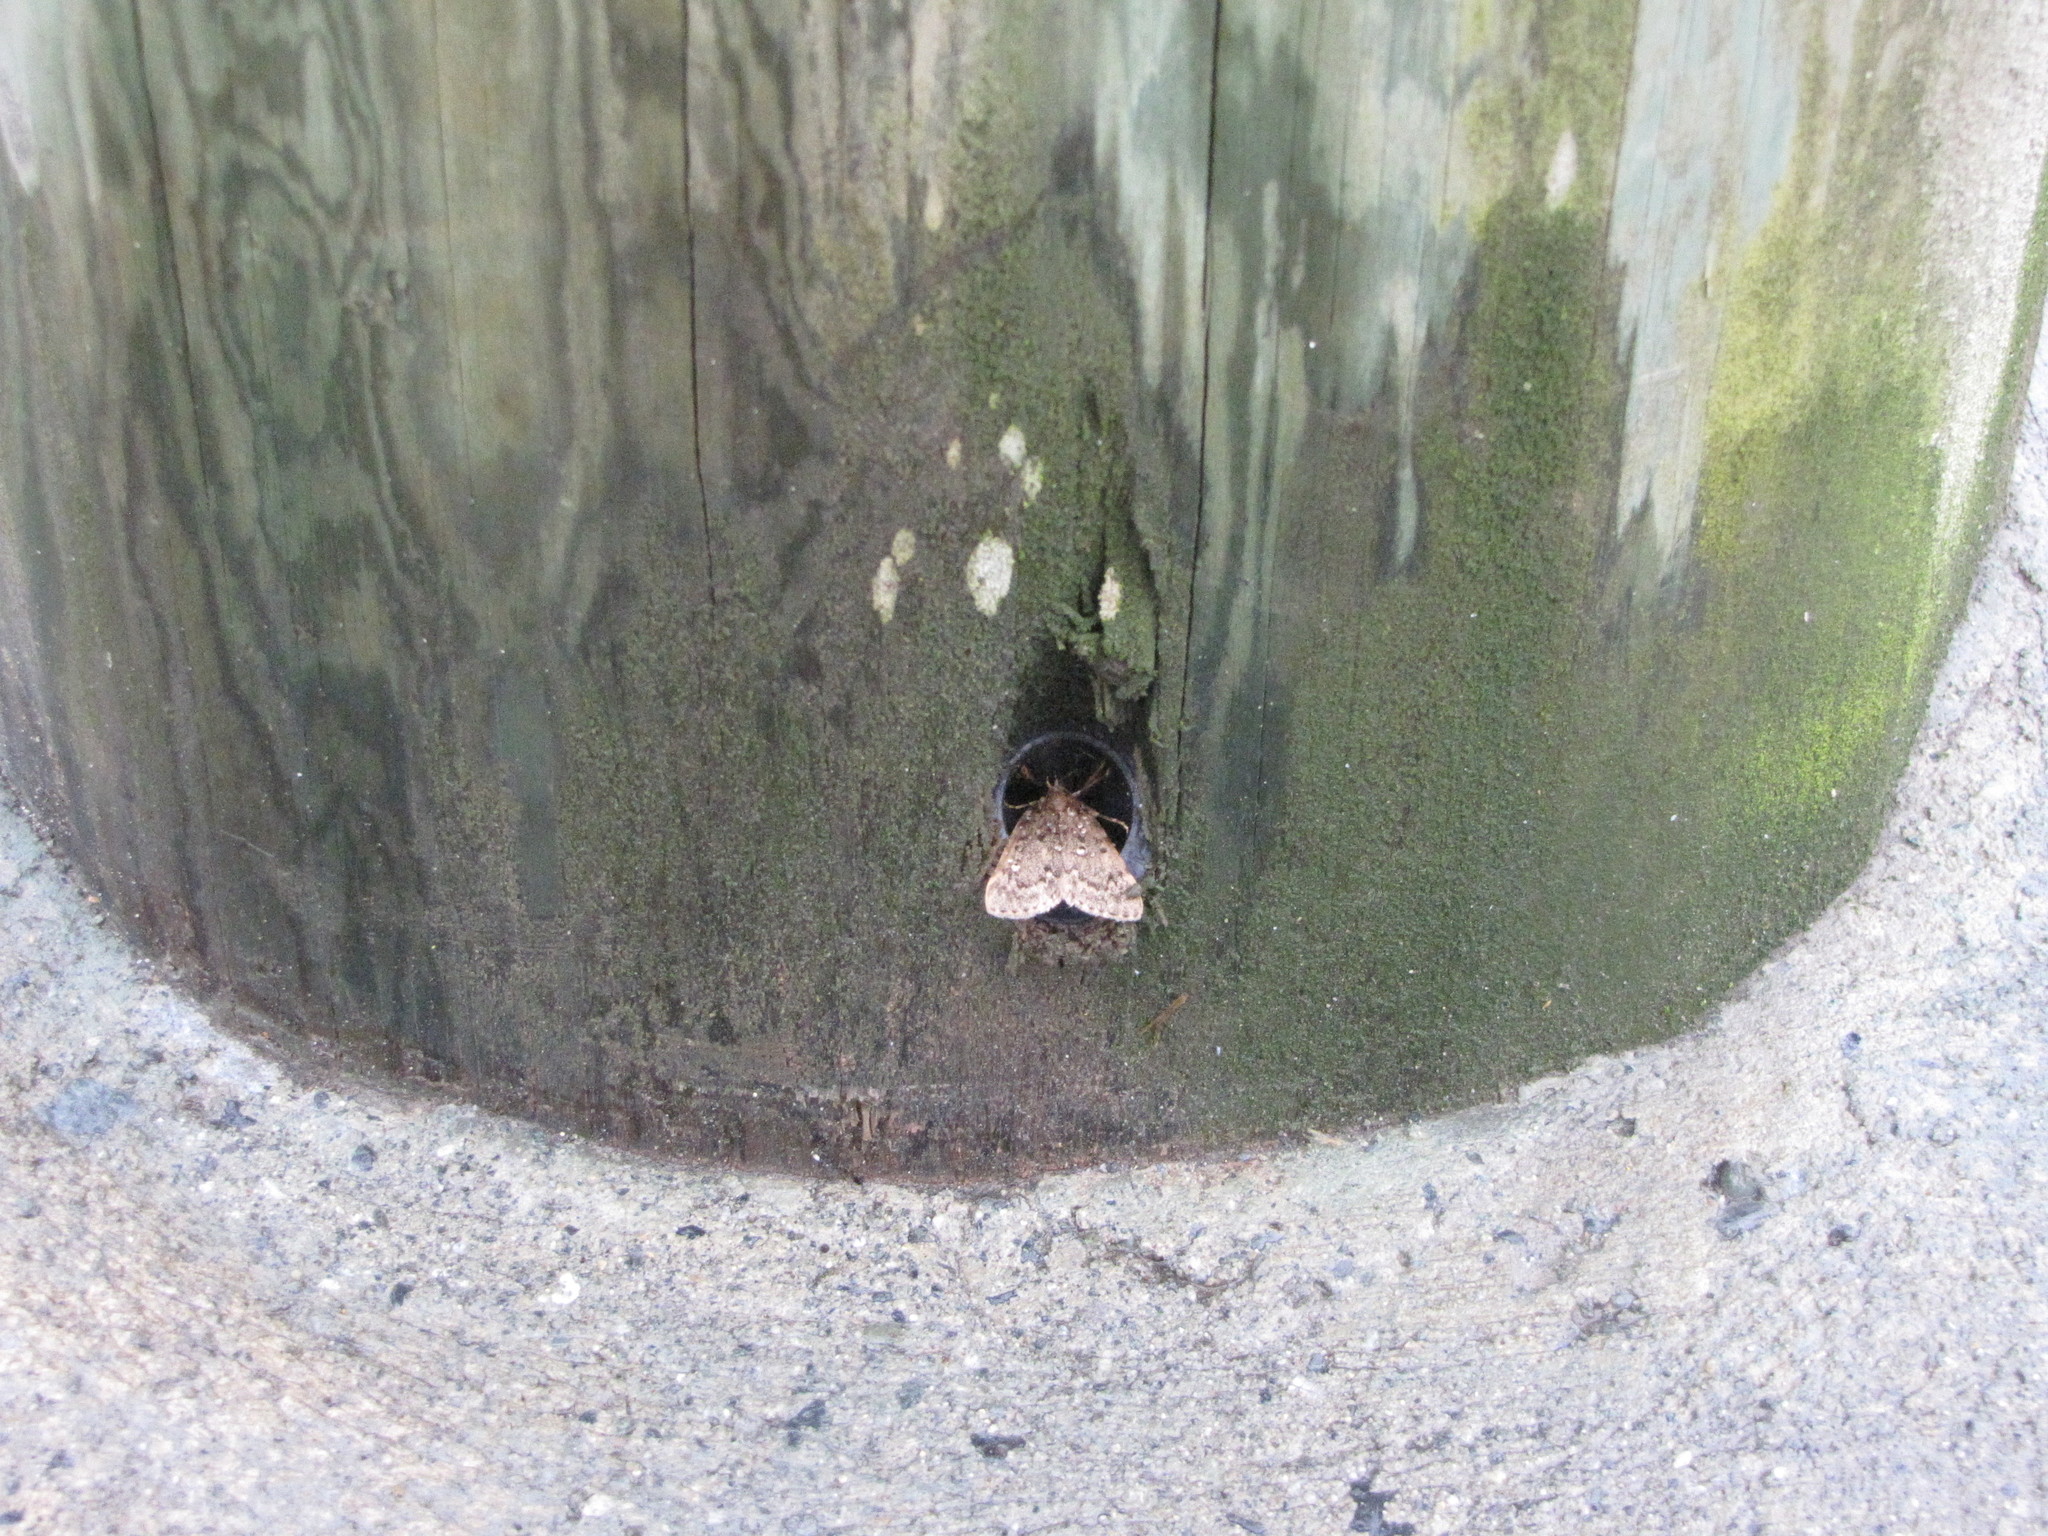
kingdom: Animalia
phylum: Arthropoda
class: Insecta
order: Lepidoptera
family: Pyralidae
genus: Aglossa
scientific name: Aglossa pinguinalis
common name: Large tabby
